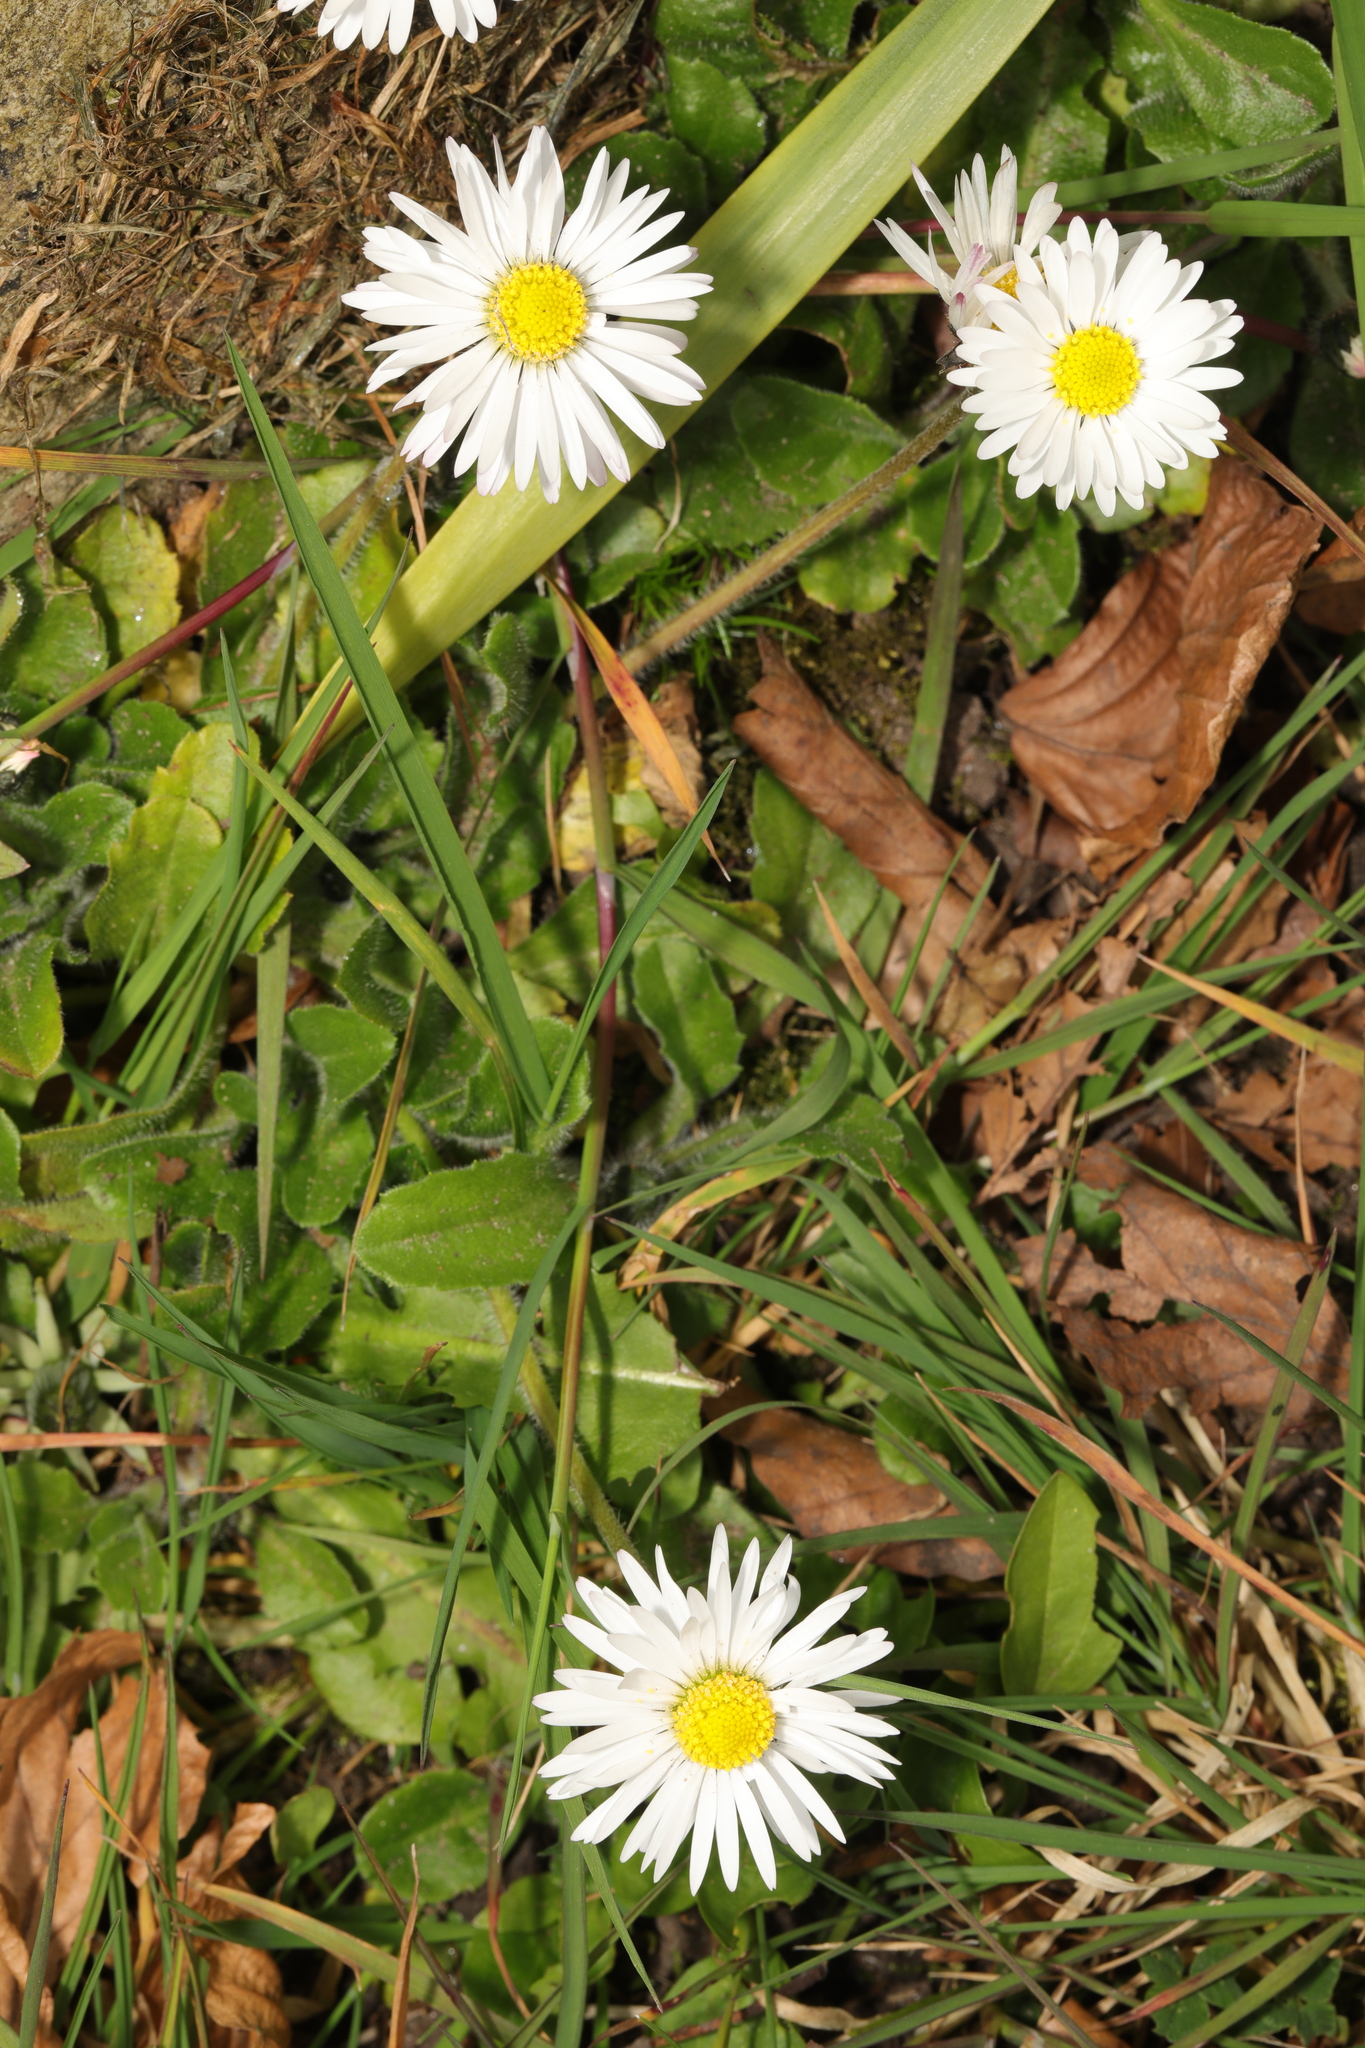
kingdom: Plantae
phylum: Tracheophyta
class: Magnoliopsida
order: Asterales
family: Asteraceae
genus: Bellis
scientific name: Bellis perennis
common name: Lawndaisy
